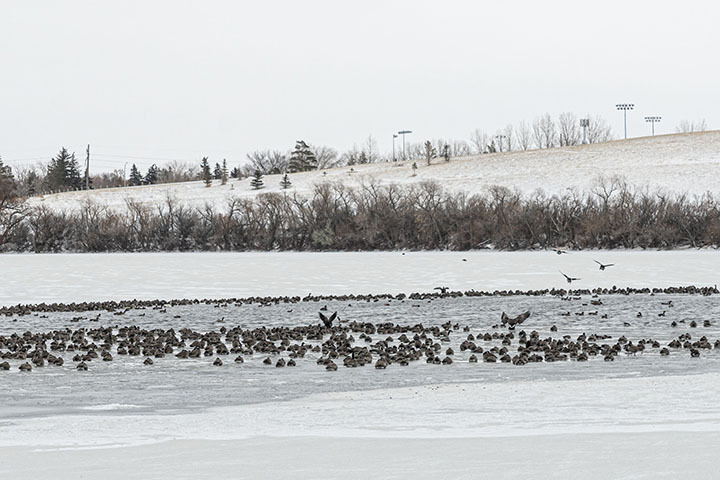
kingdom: Animalia
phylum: Chordata
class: Aves
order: Anseriformes
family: Anatidae
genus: Branta
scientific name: Branta canadensis
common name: Canada goose
